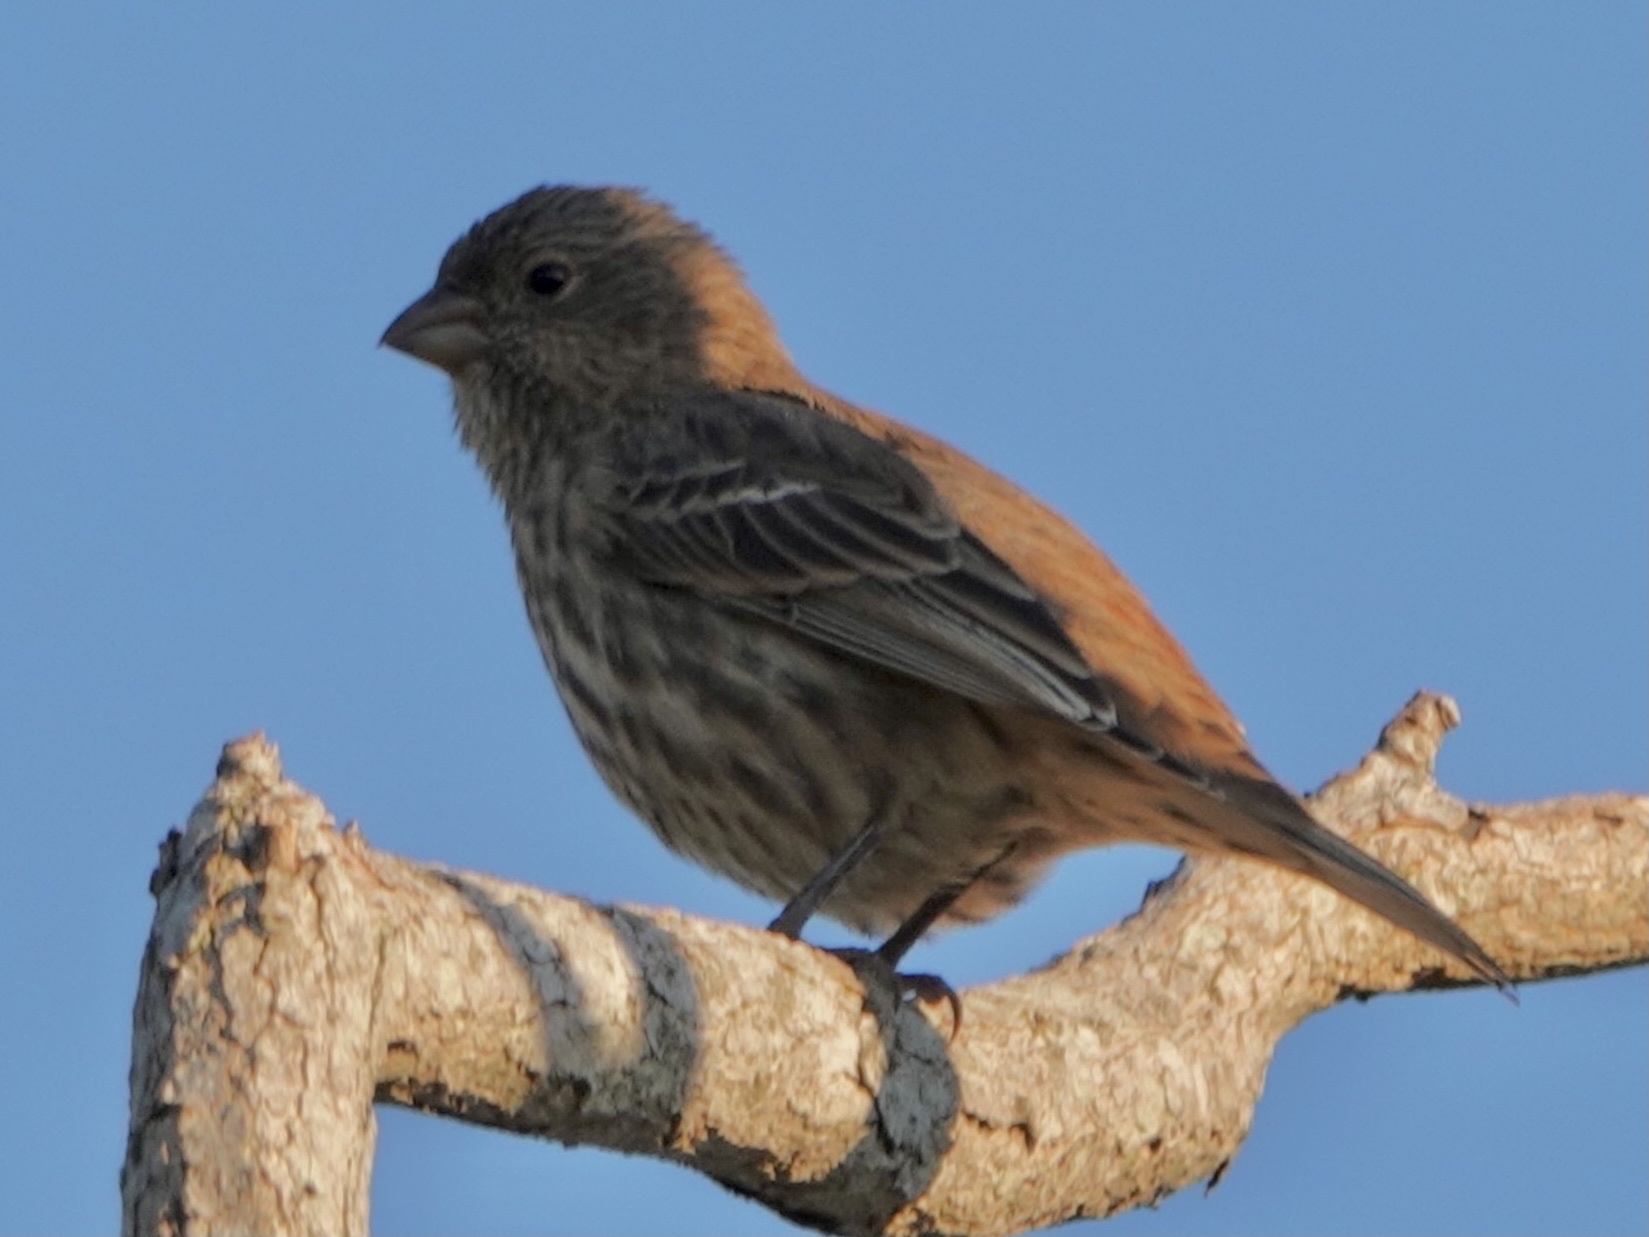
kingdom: Animalia
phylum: Chordata
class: Aves
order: Passeriformes
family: Fringillidae
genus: Haemorhous
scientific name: Haemorhous mexicanus
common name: House finch
